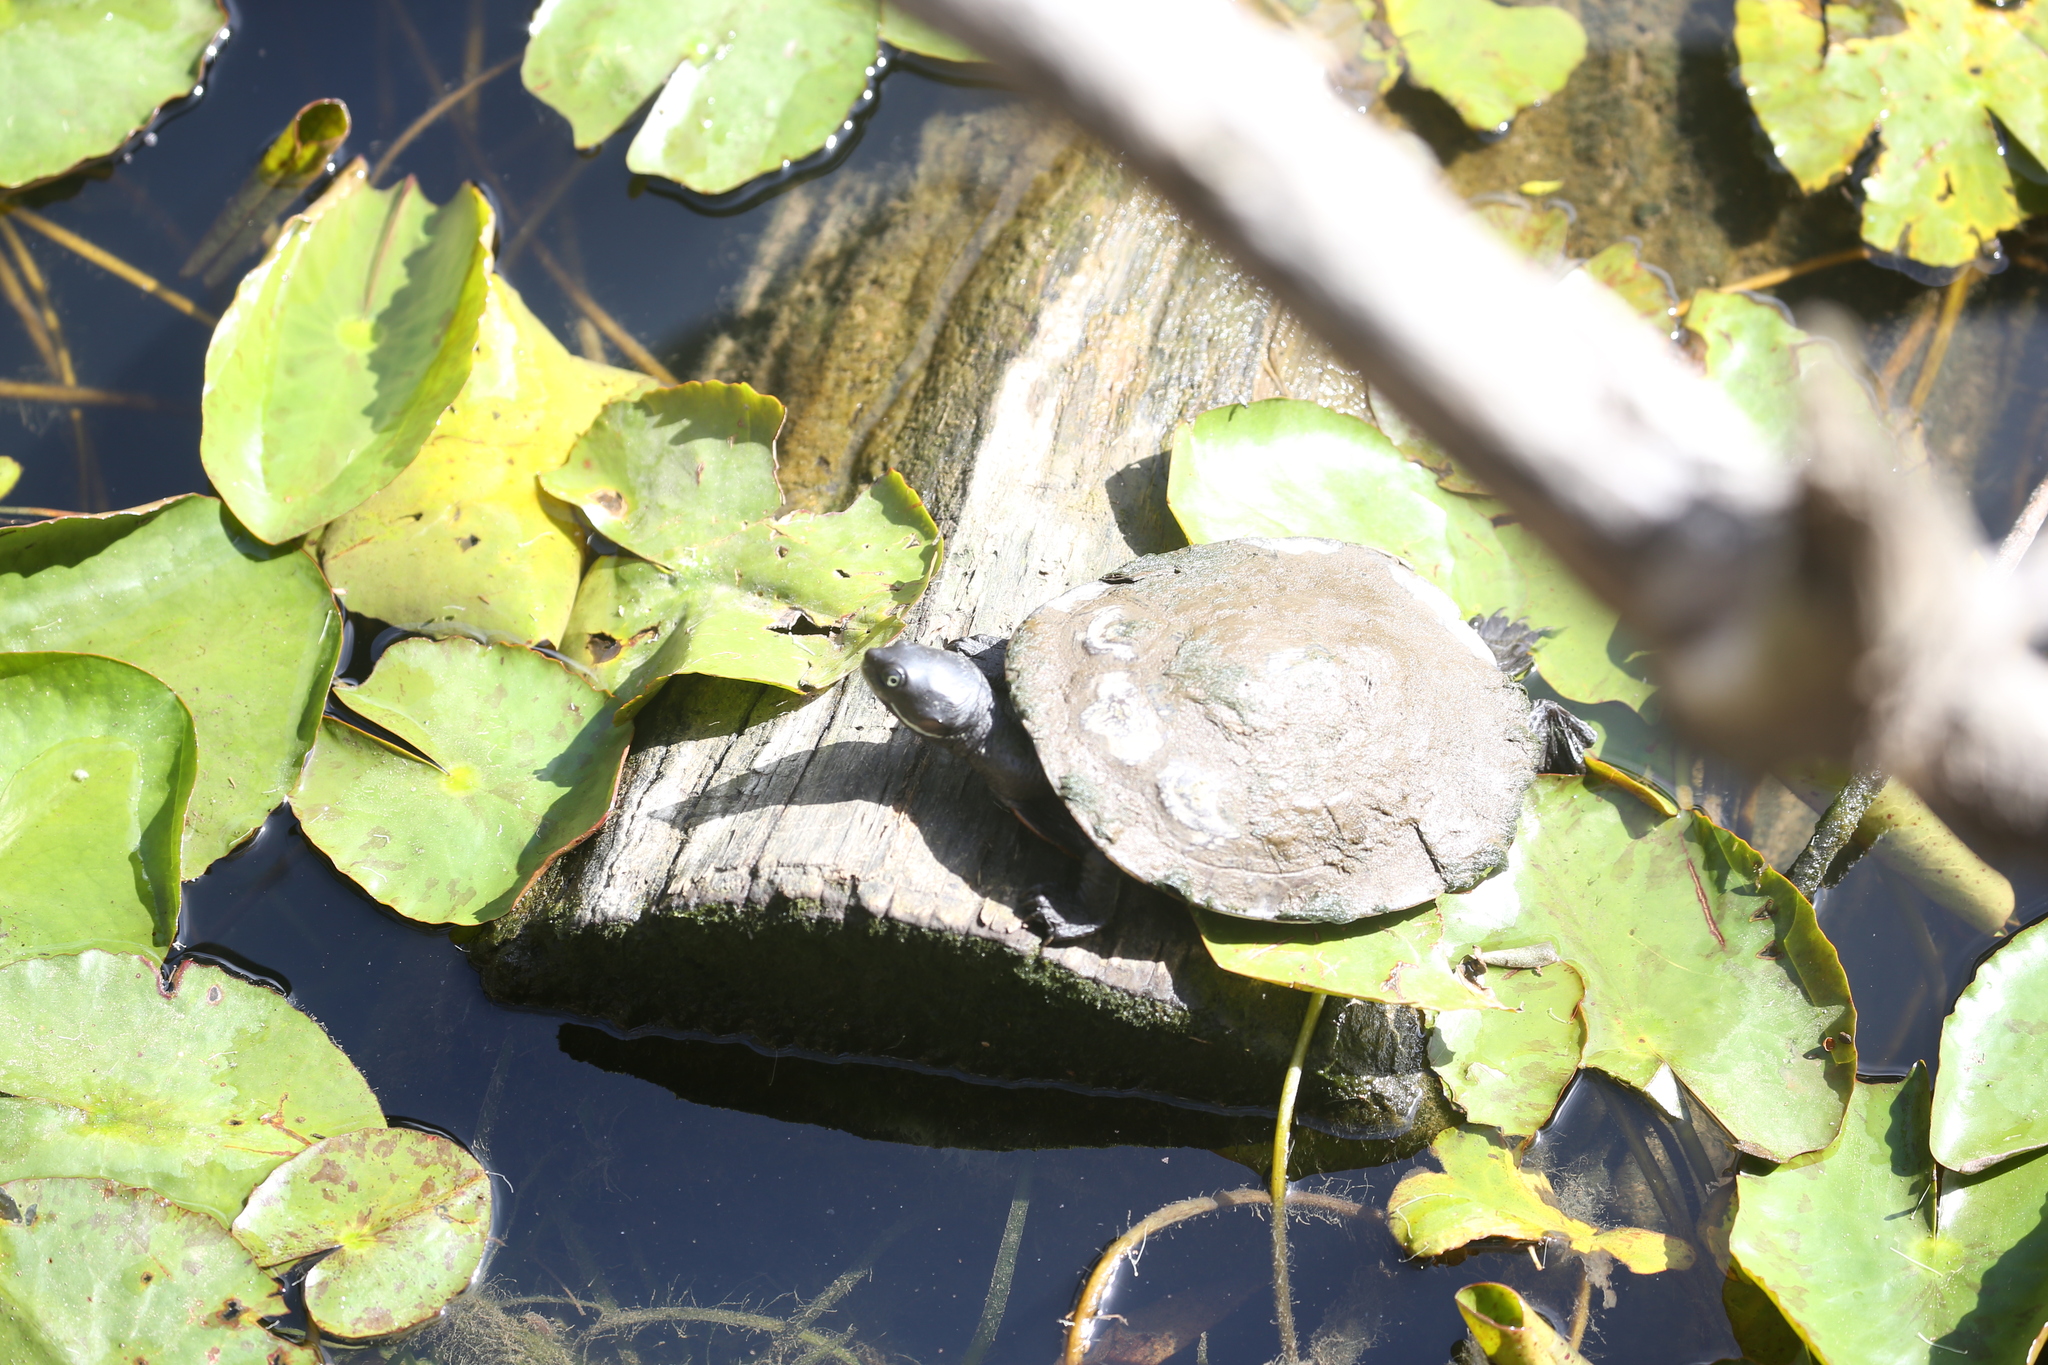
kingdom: Animalia
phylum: Chordata
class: Testudines
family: Chelidae
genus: Emydura
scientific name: Emydura macquarii
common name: Murray river turtle
